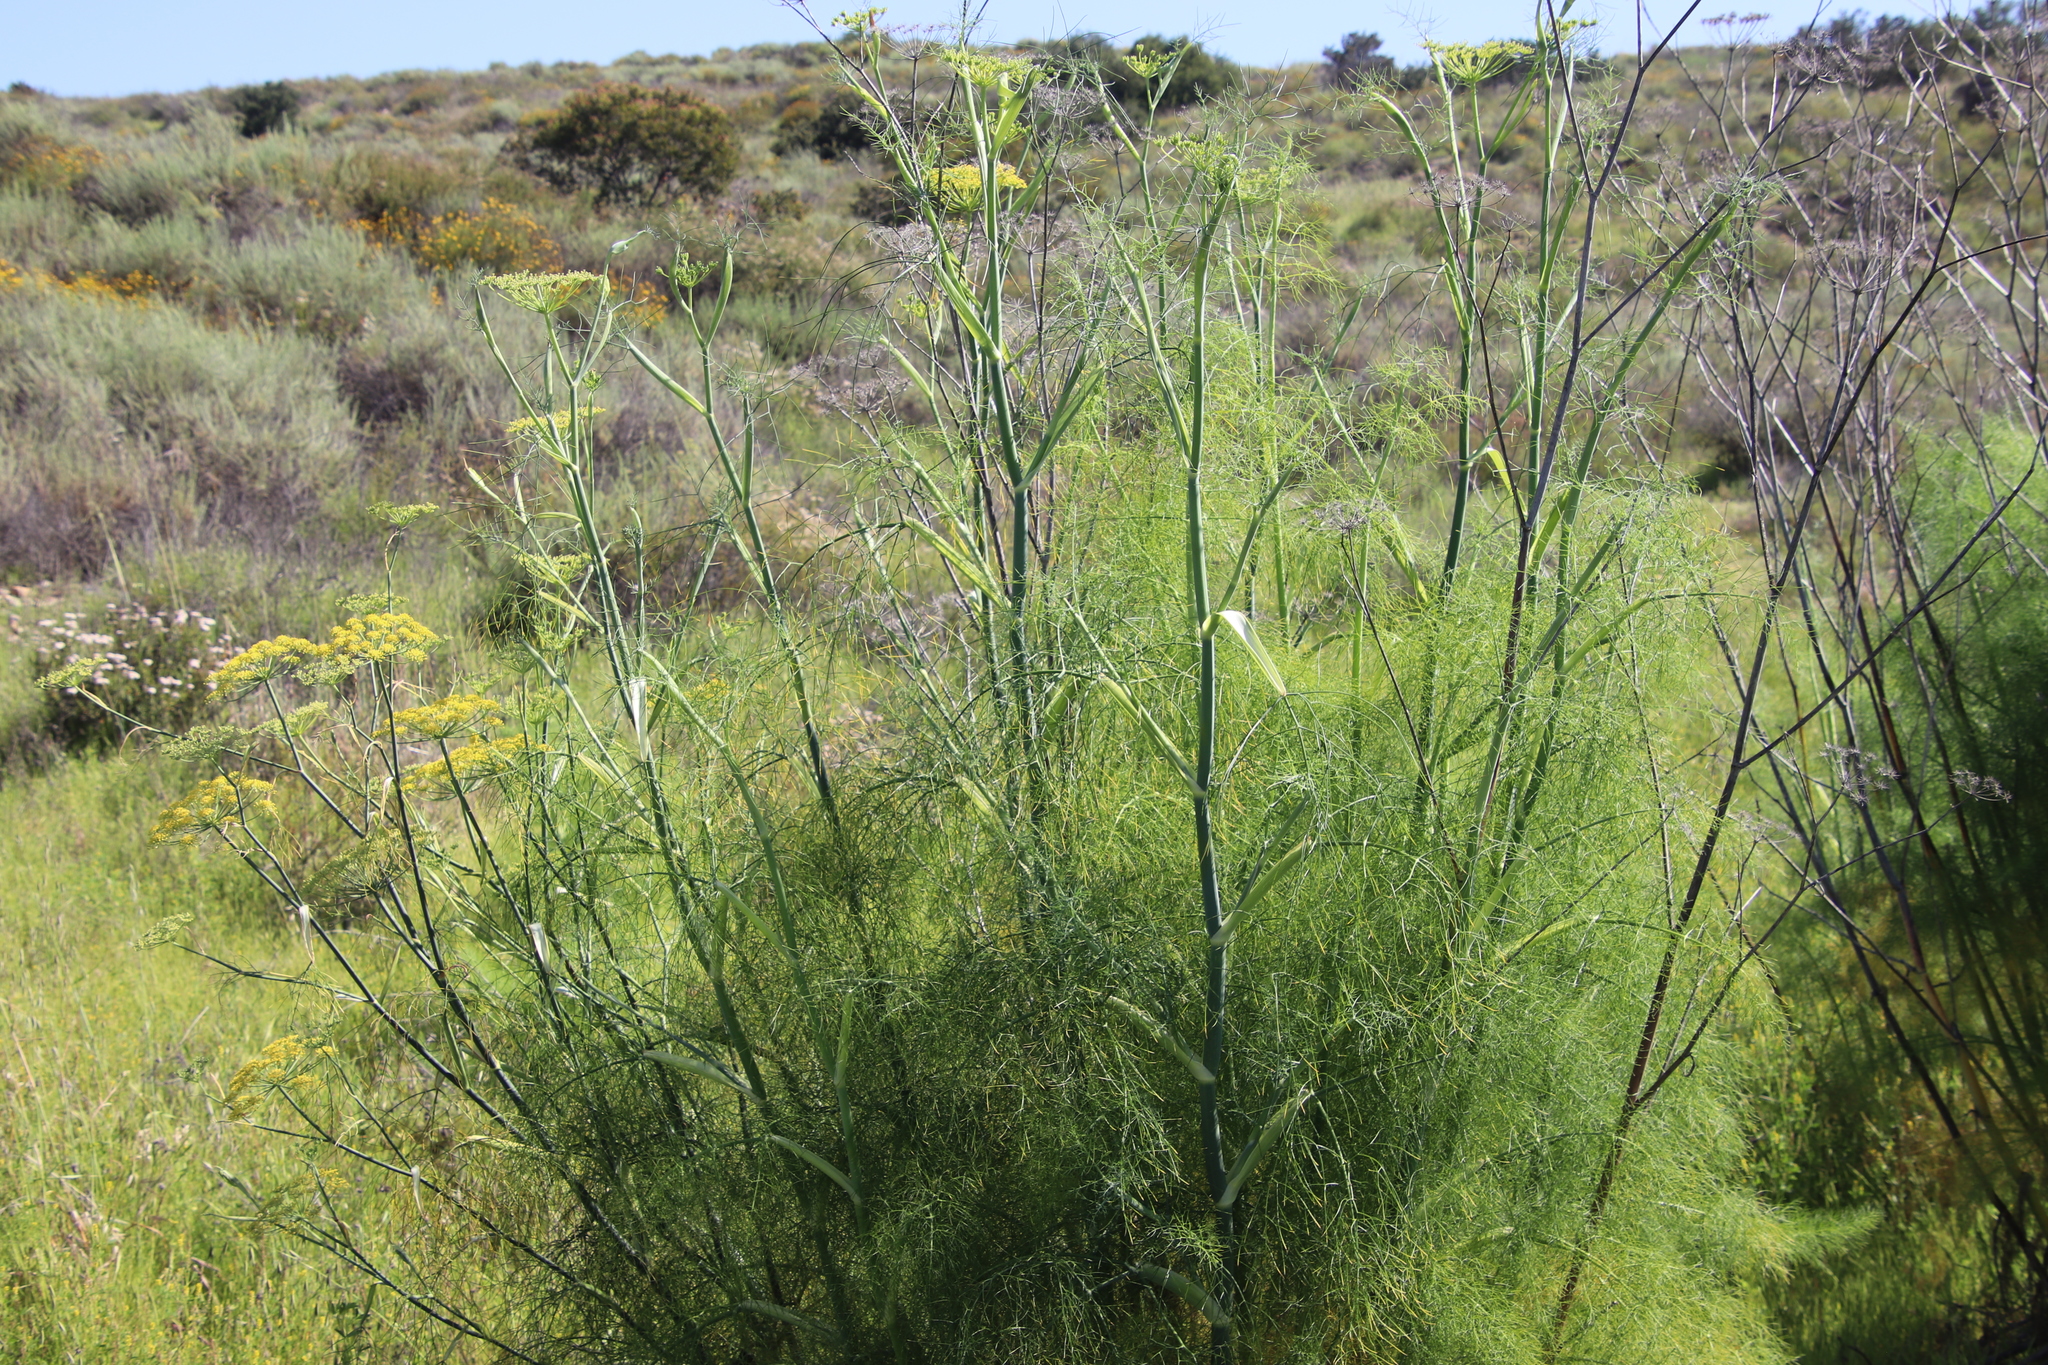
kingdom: Plantae
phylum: Tracheophyta
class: Magnoliopsida
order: Apiales
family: Apiaceae
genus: Foeniculum
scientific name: Foeniculum vulgare
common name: Fennel
